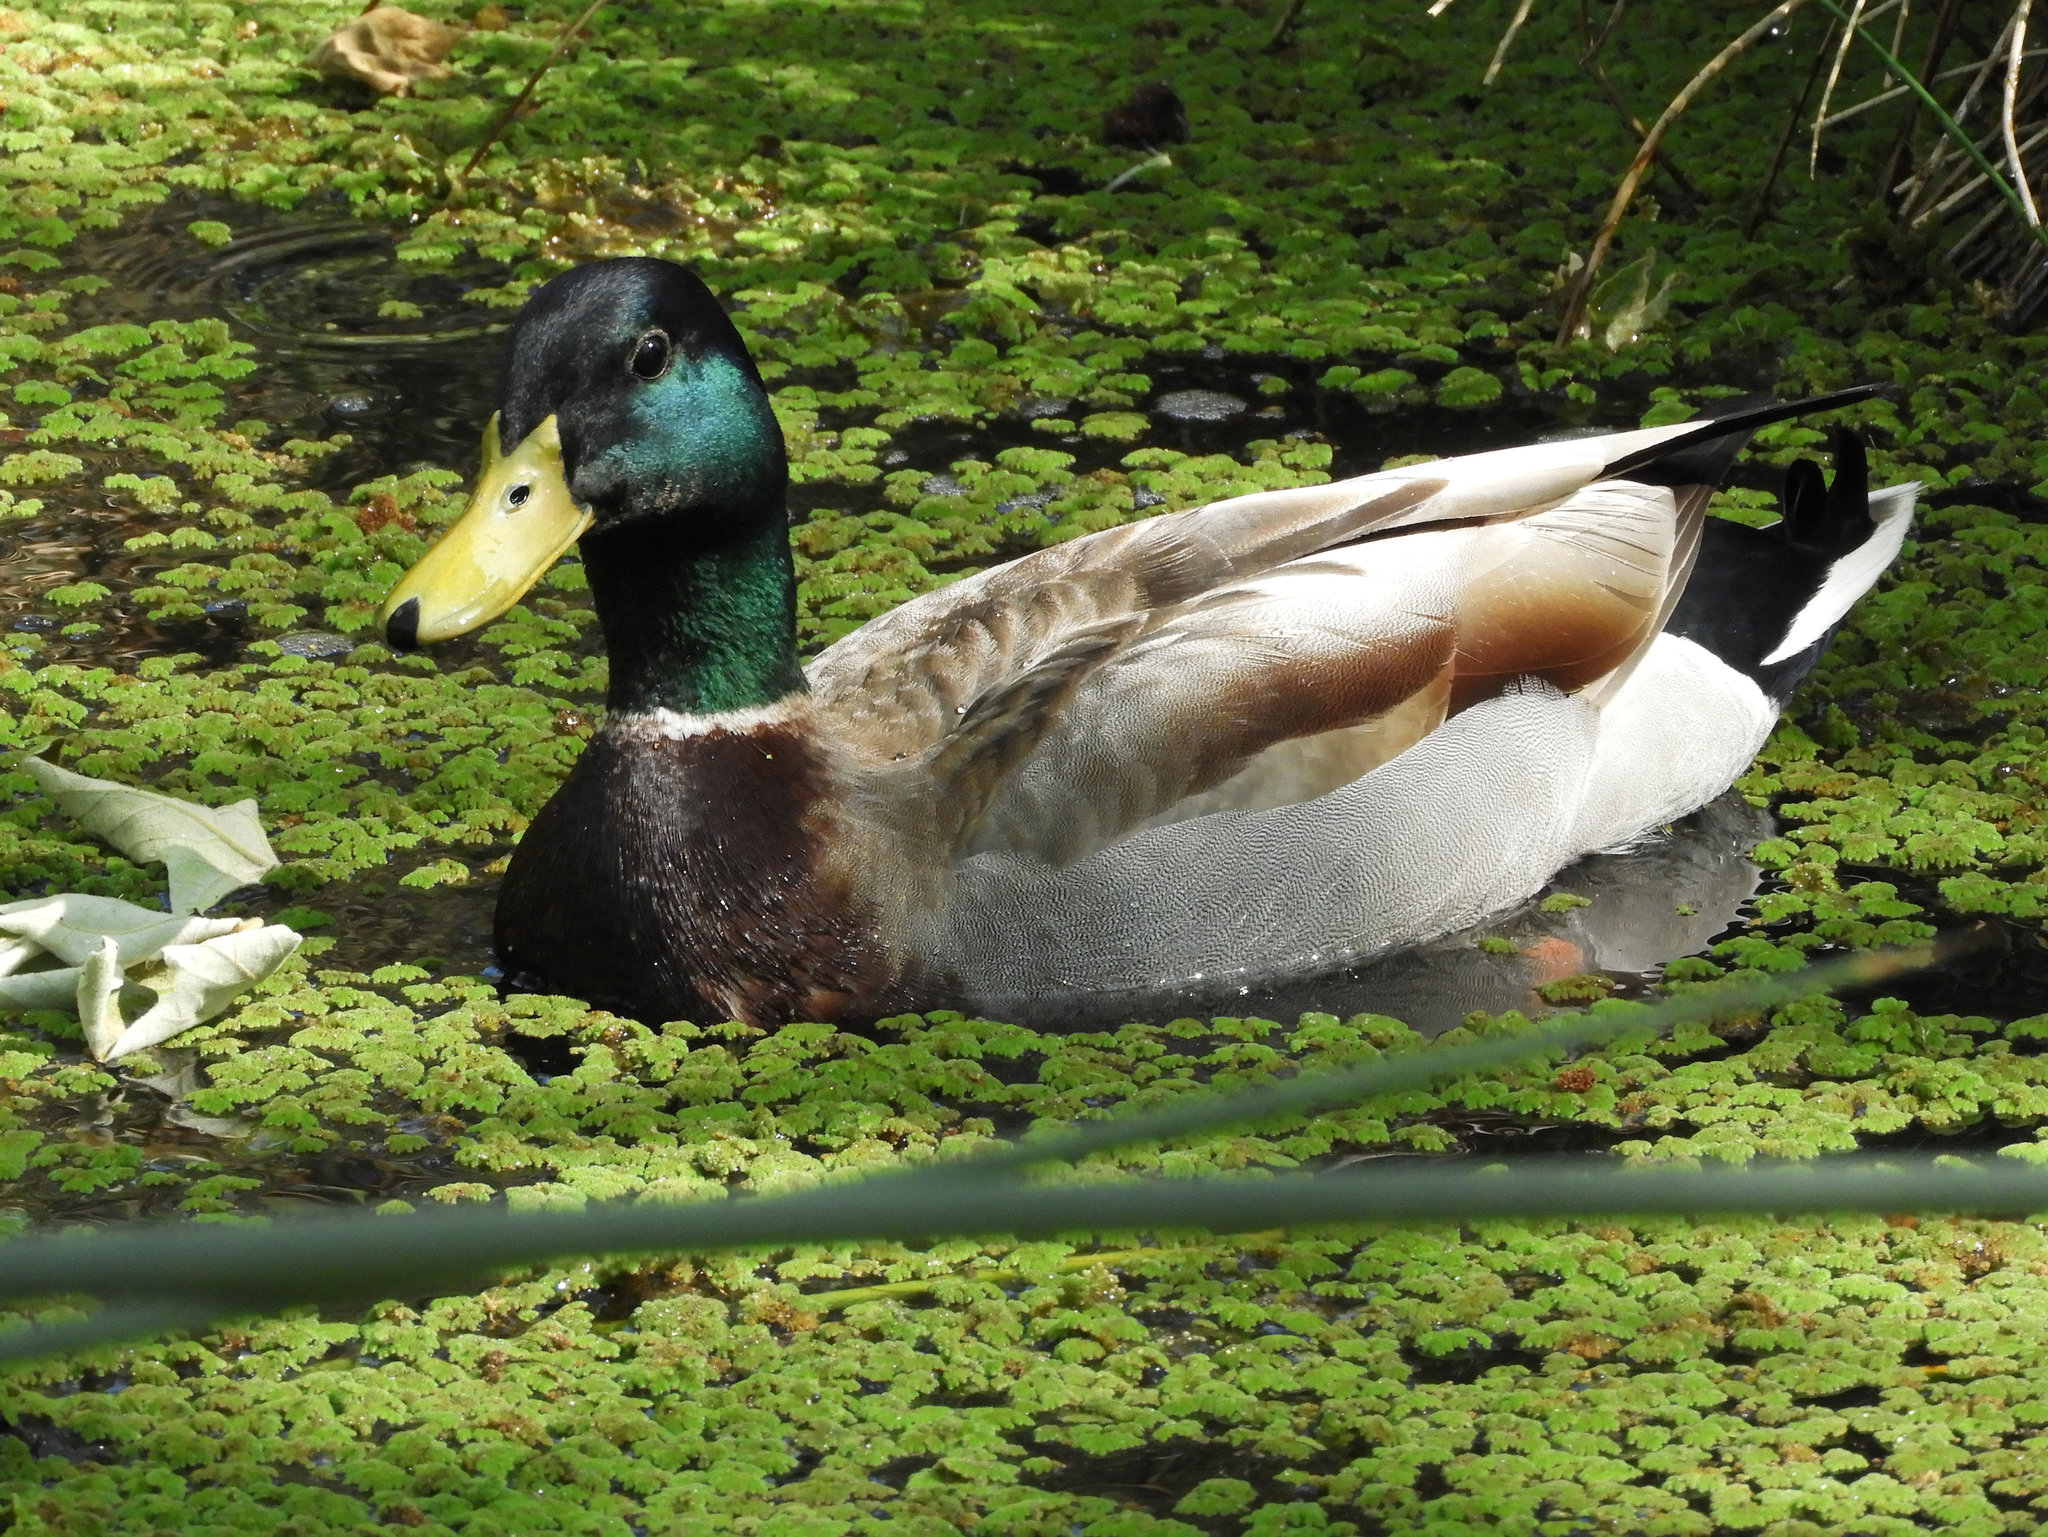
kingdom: Animalia
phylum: Chordata
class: Aves
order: Anseriformes
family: Anatidae
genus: Anas
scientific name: Anas platyrhynchos
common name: Mallard
